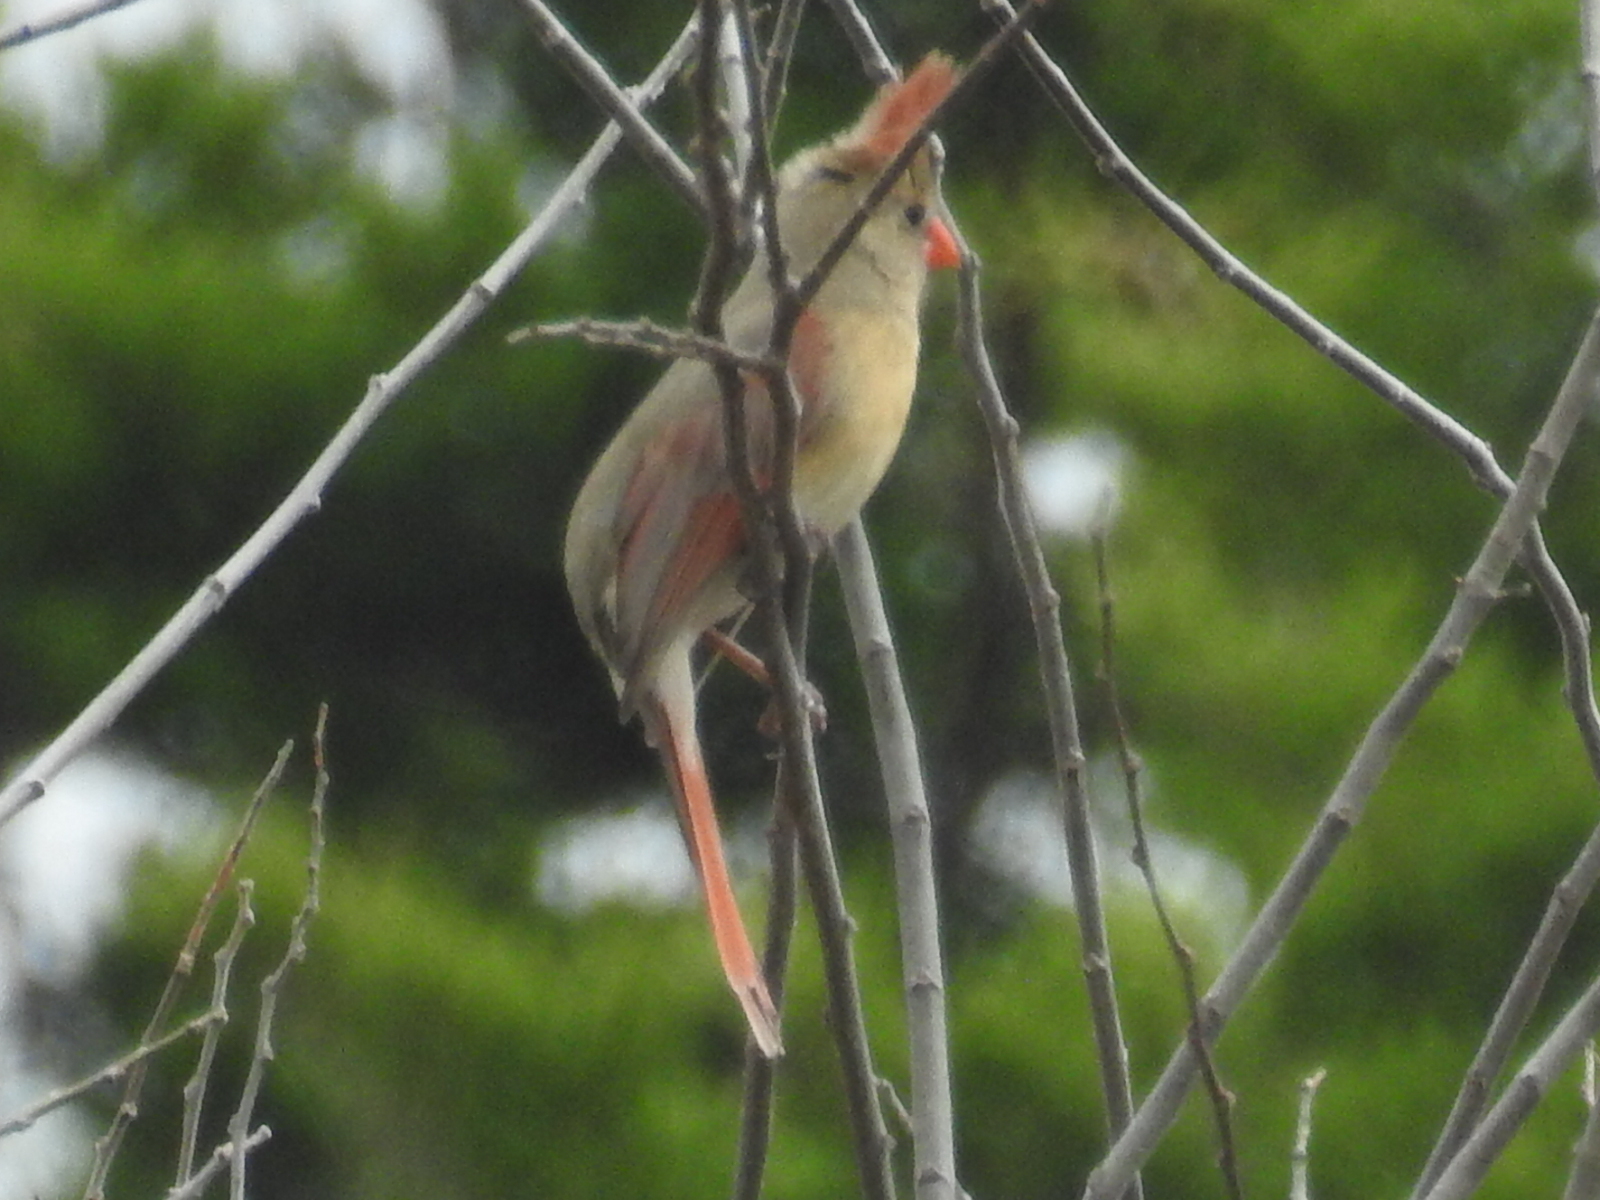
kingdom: Animalia
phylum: Chordata
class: Aves
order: Passeriformes
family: Cardinalidae
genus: Cardinalis
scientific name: Cardinalis cardinalis
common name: Northern cardinal
